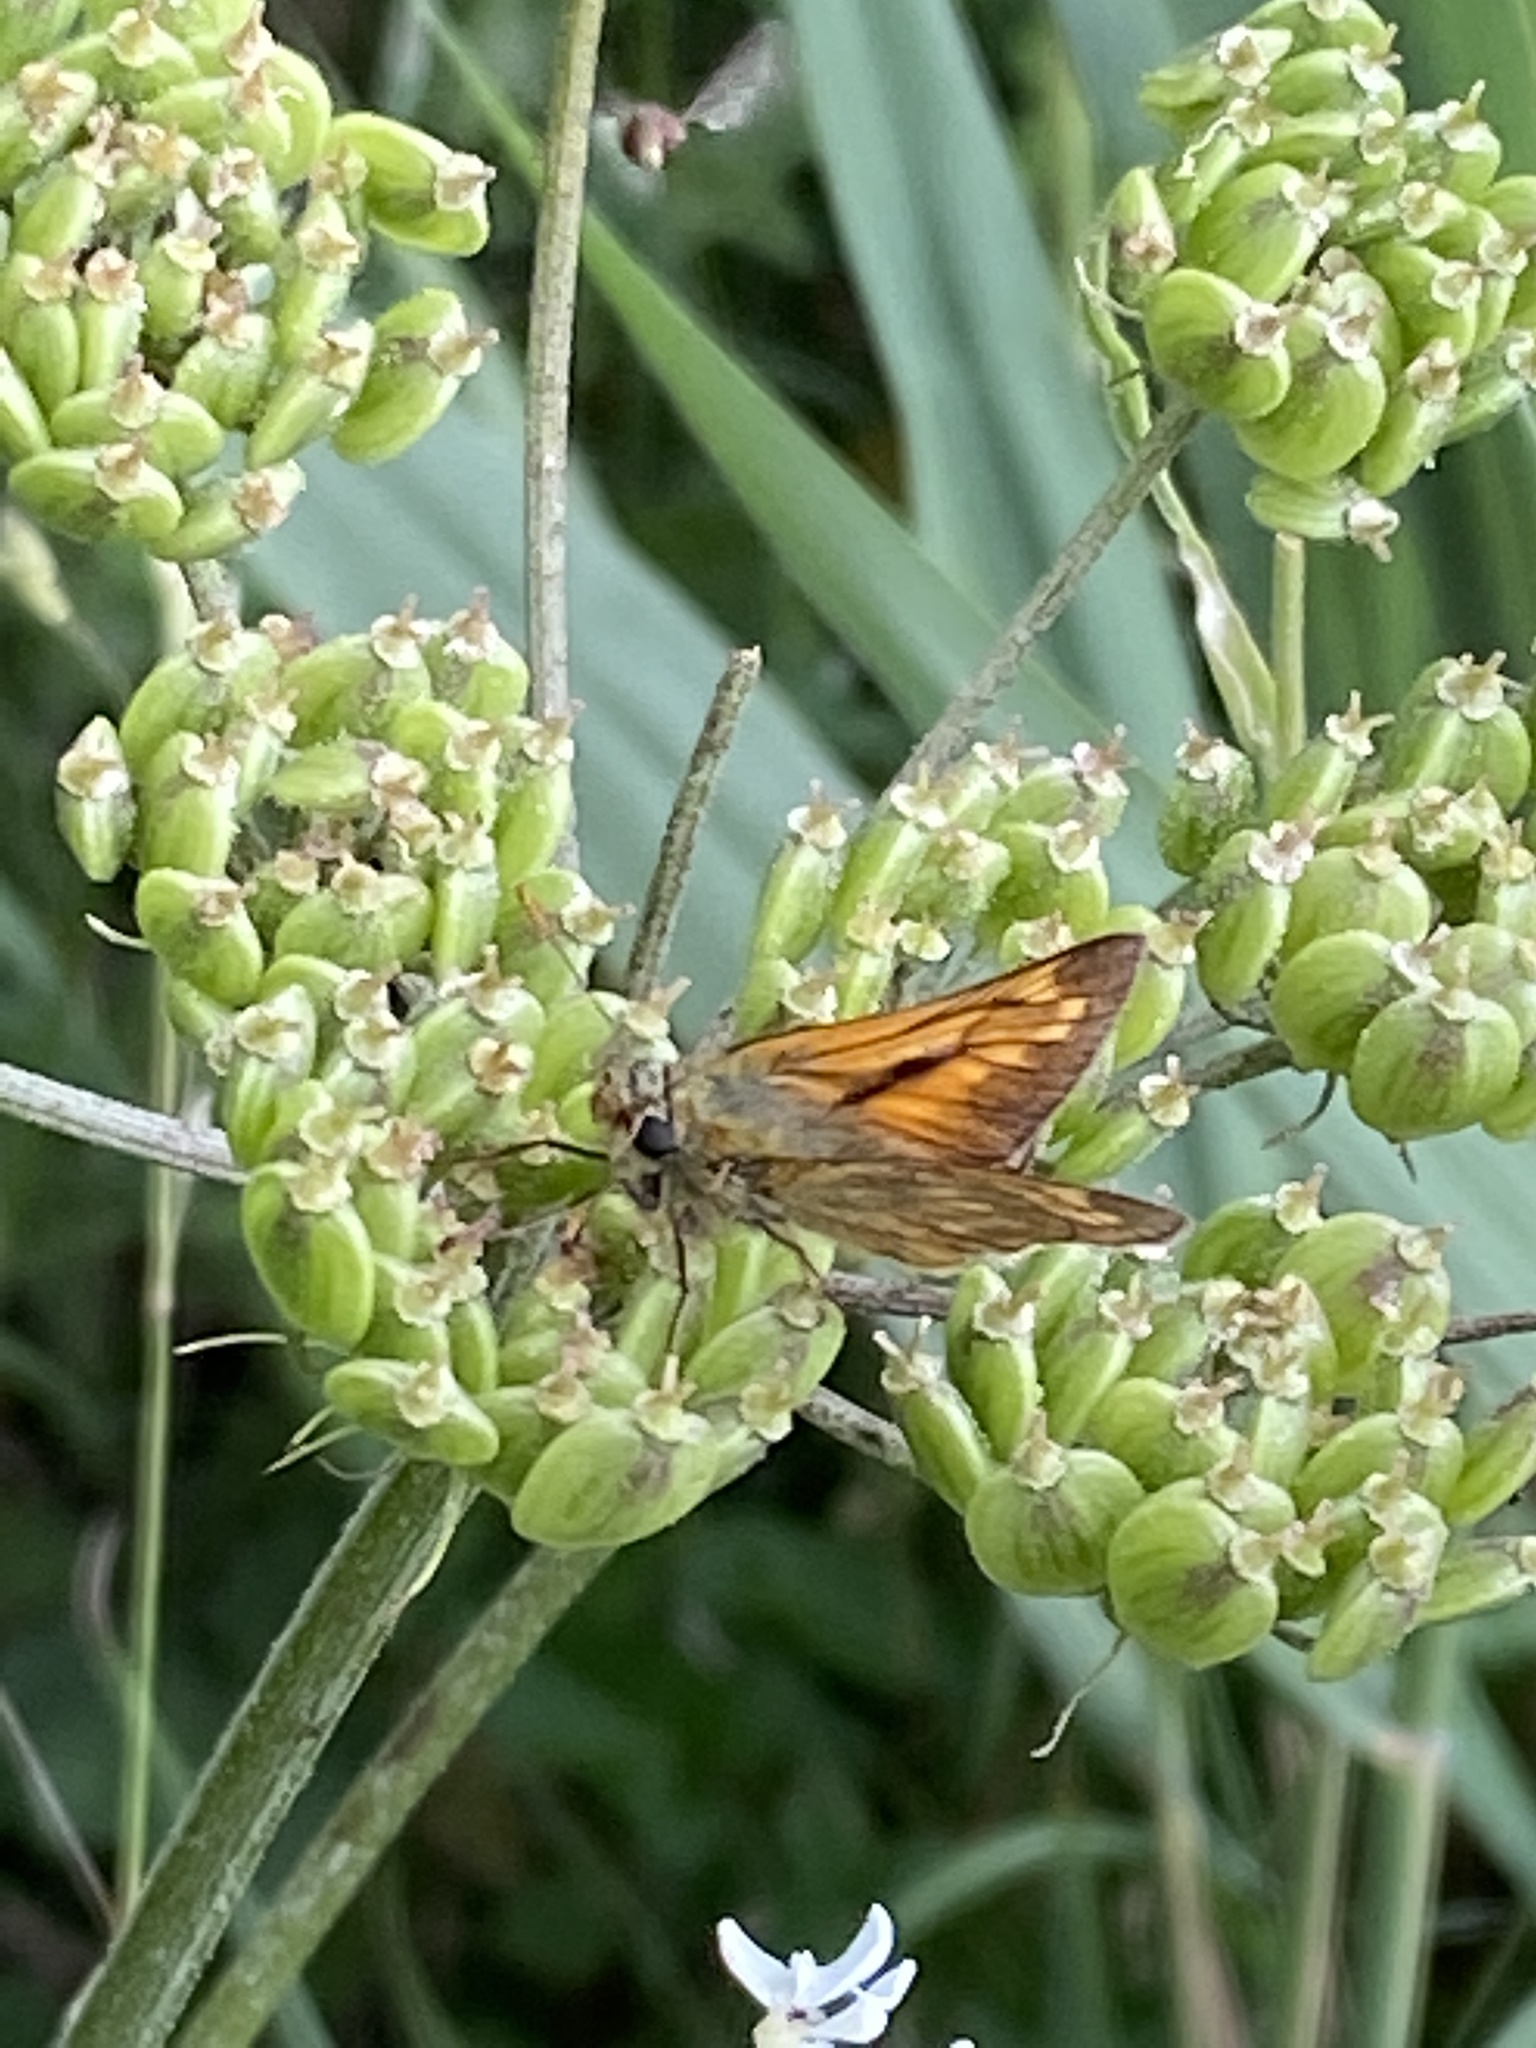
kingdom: Animalia
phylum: Arthropoda
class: Insecta
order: Lepidoptera
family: Hesperiidae
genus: Ochlodes
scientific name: Ochlodes venata
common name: Large skipper
